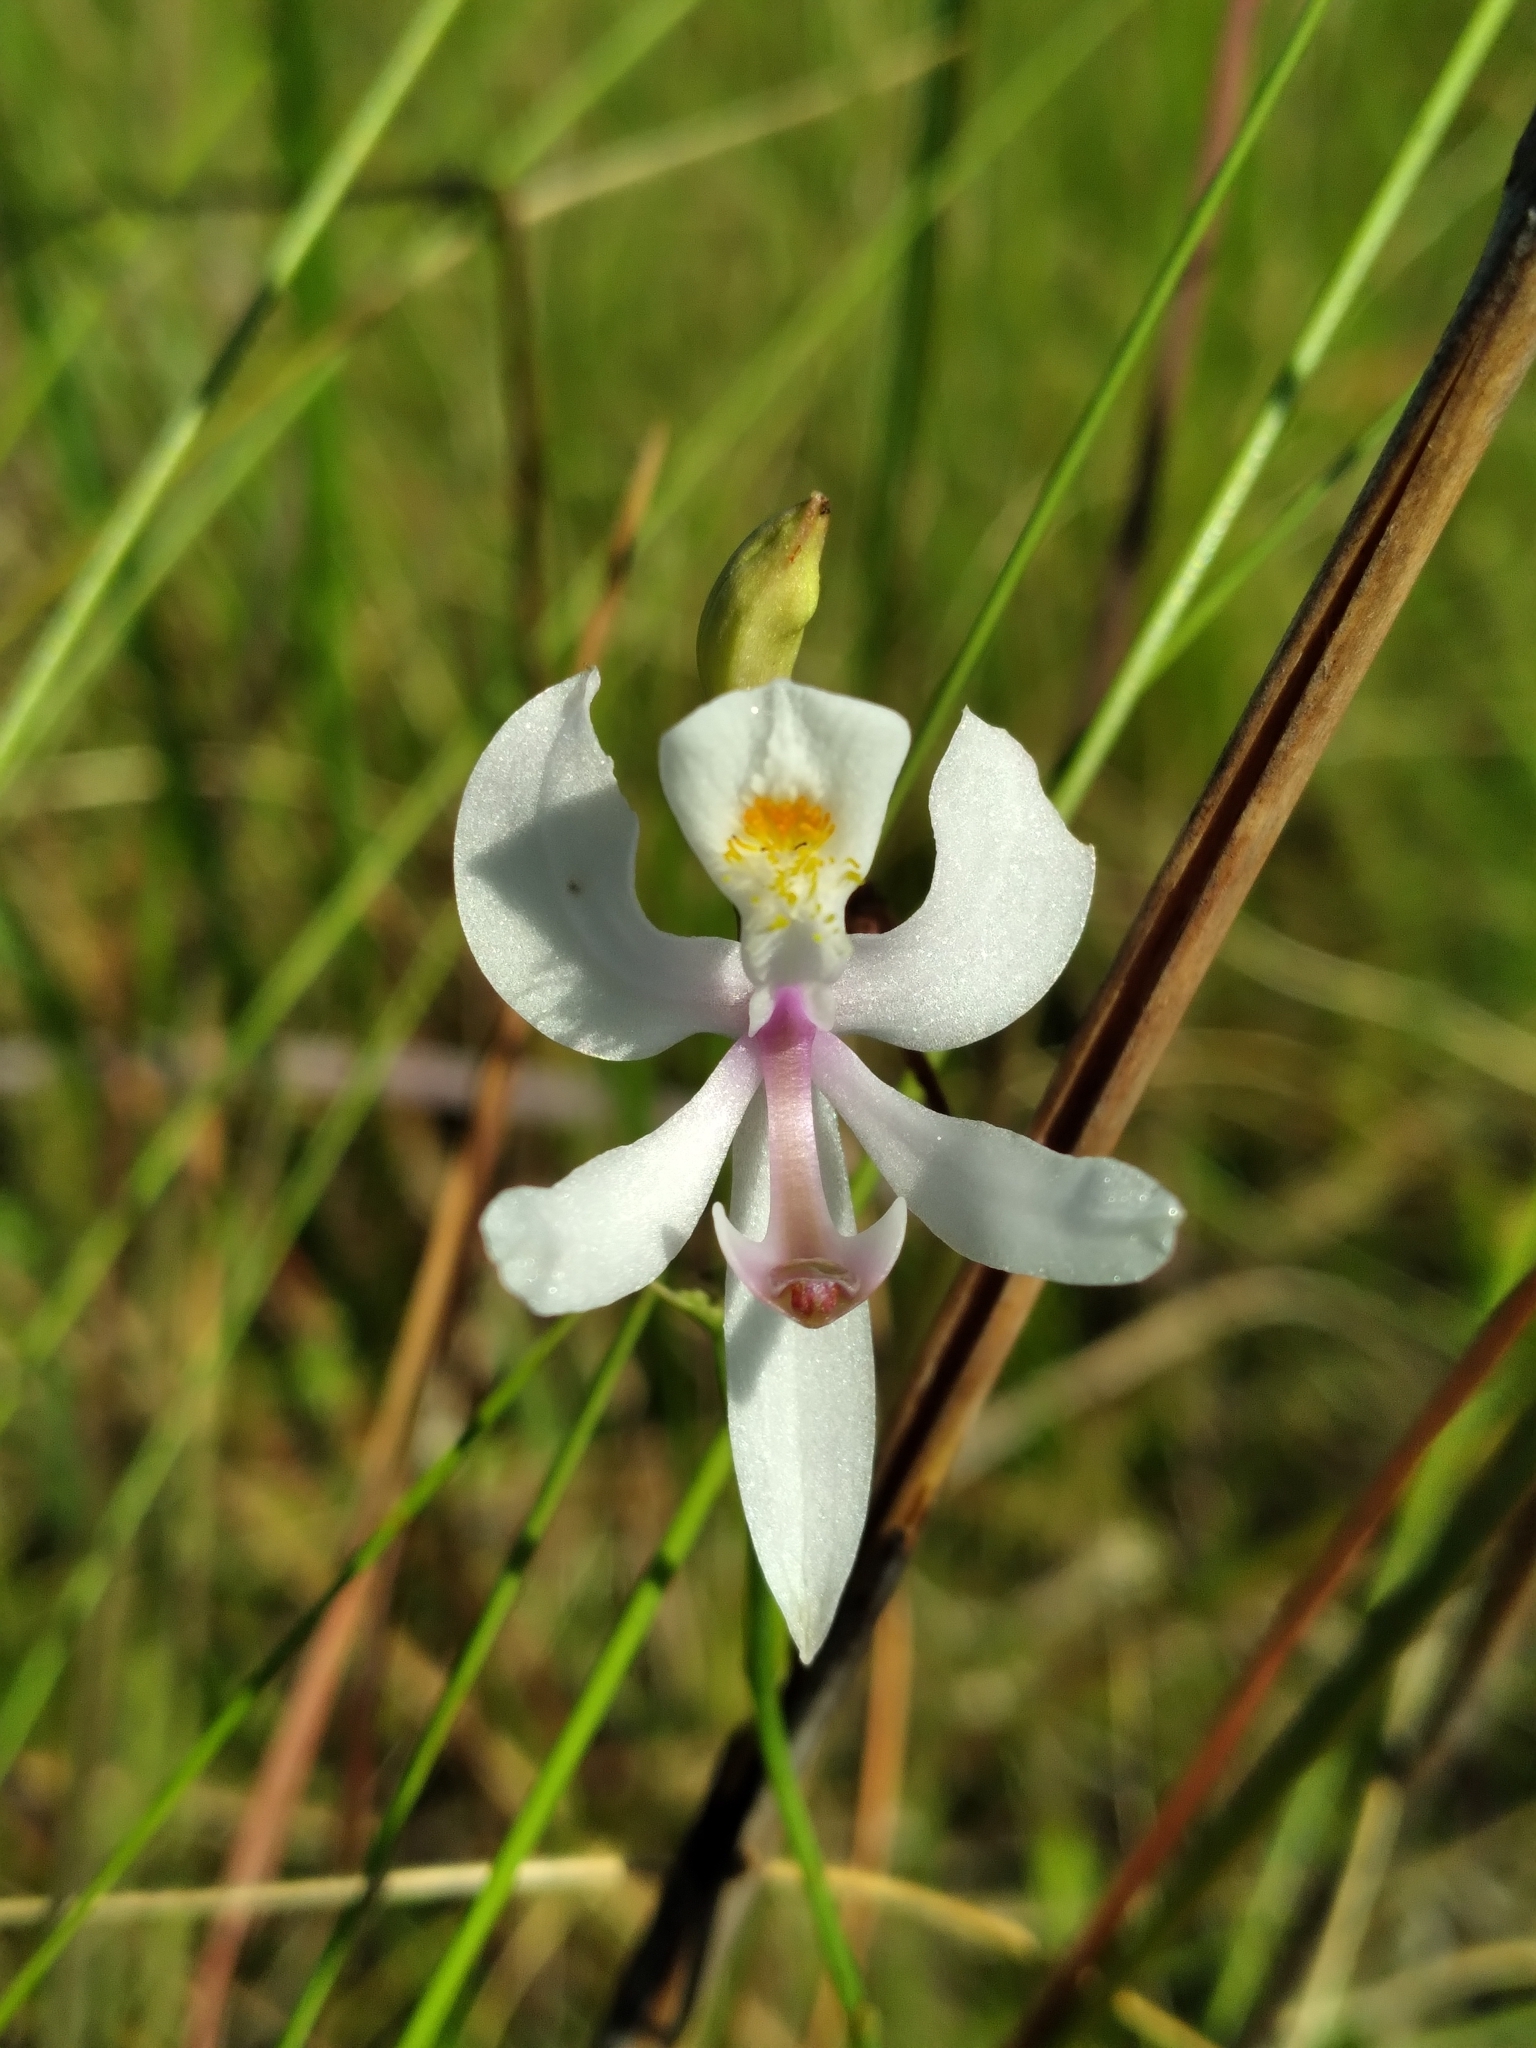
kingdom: Plantae
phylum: Tracheophyta
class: Liliopsida
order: Asparagales
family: Orchidaceae
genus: Calopogon
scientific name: Calopogon pallidus
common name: Pale grasspink
